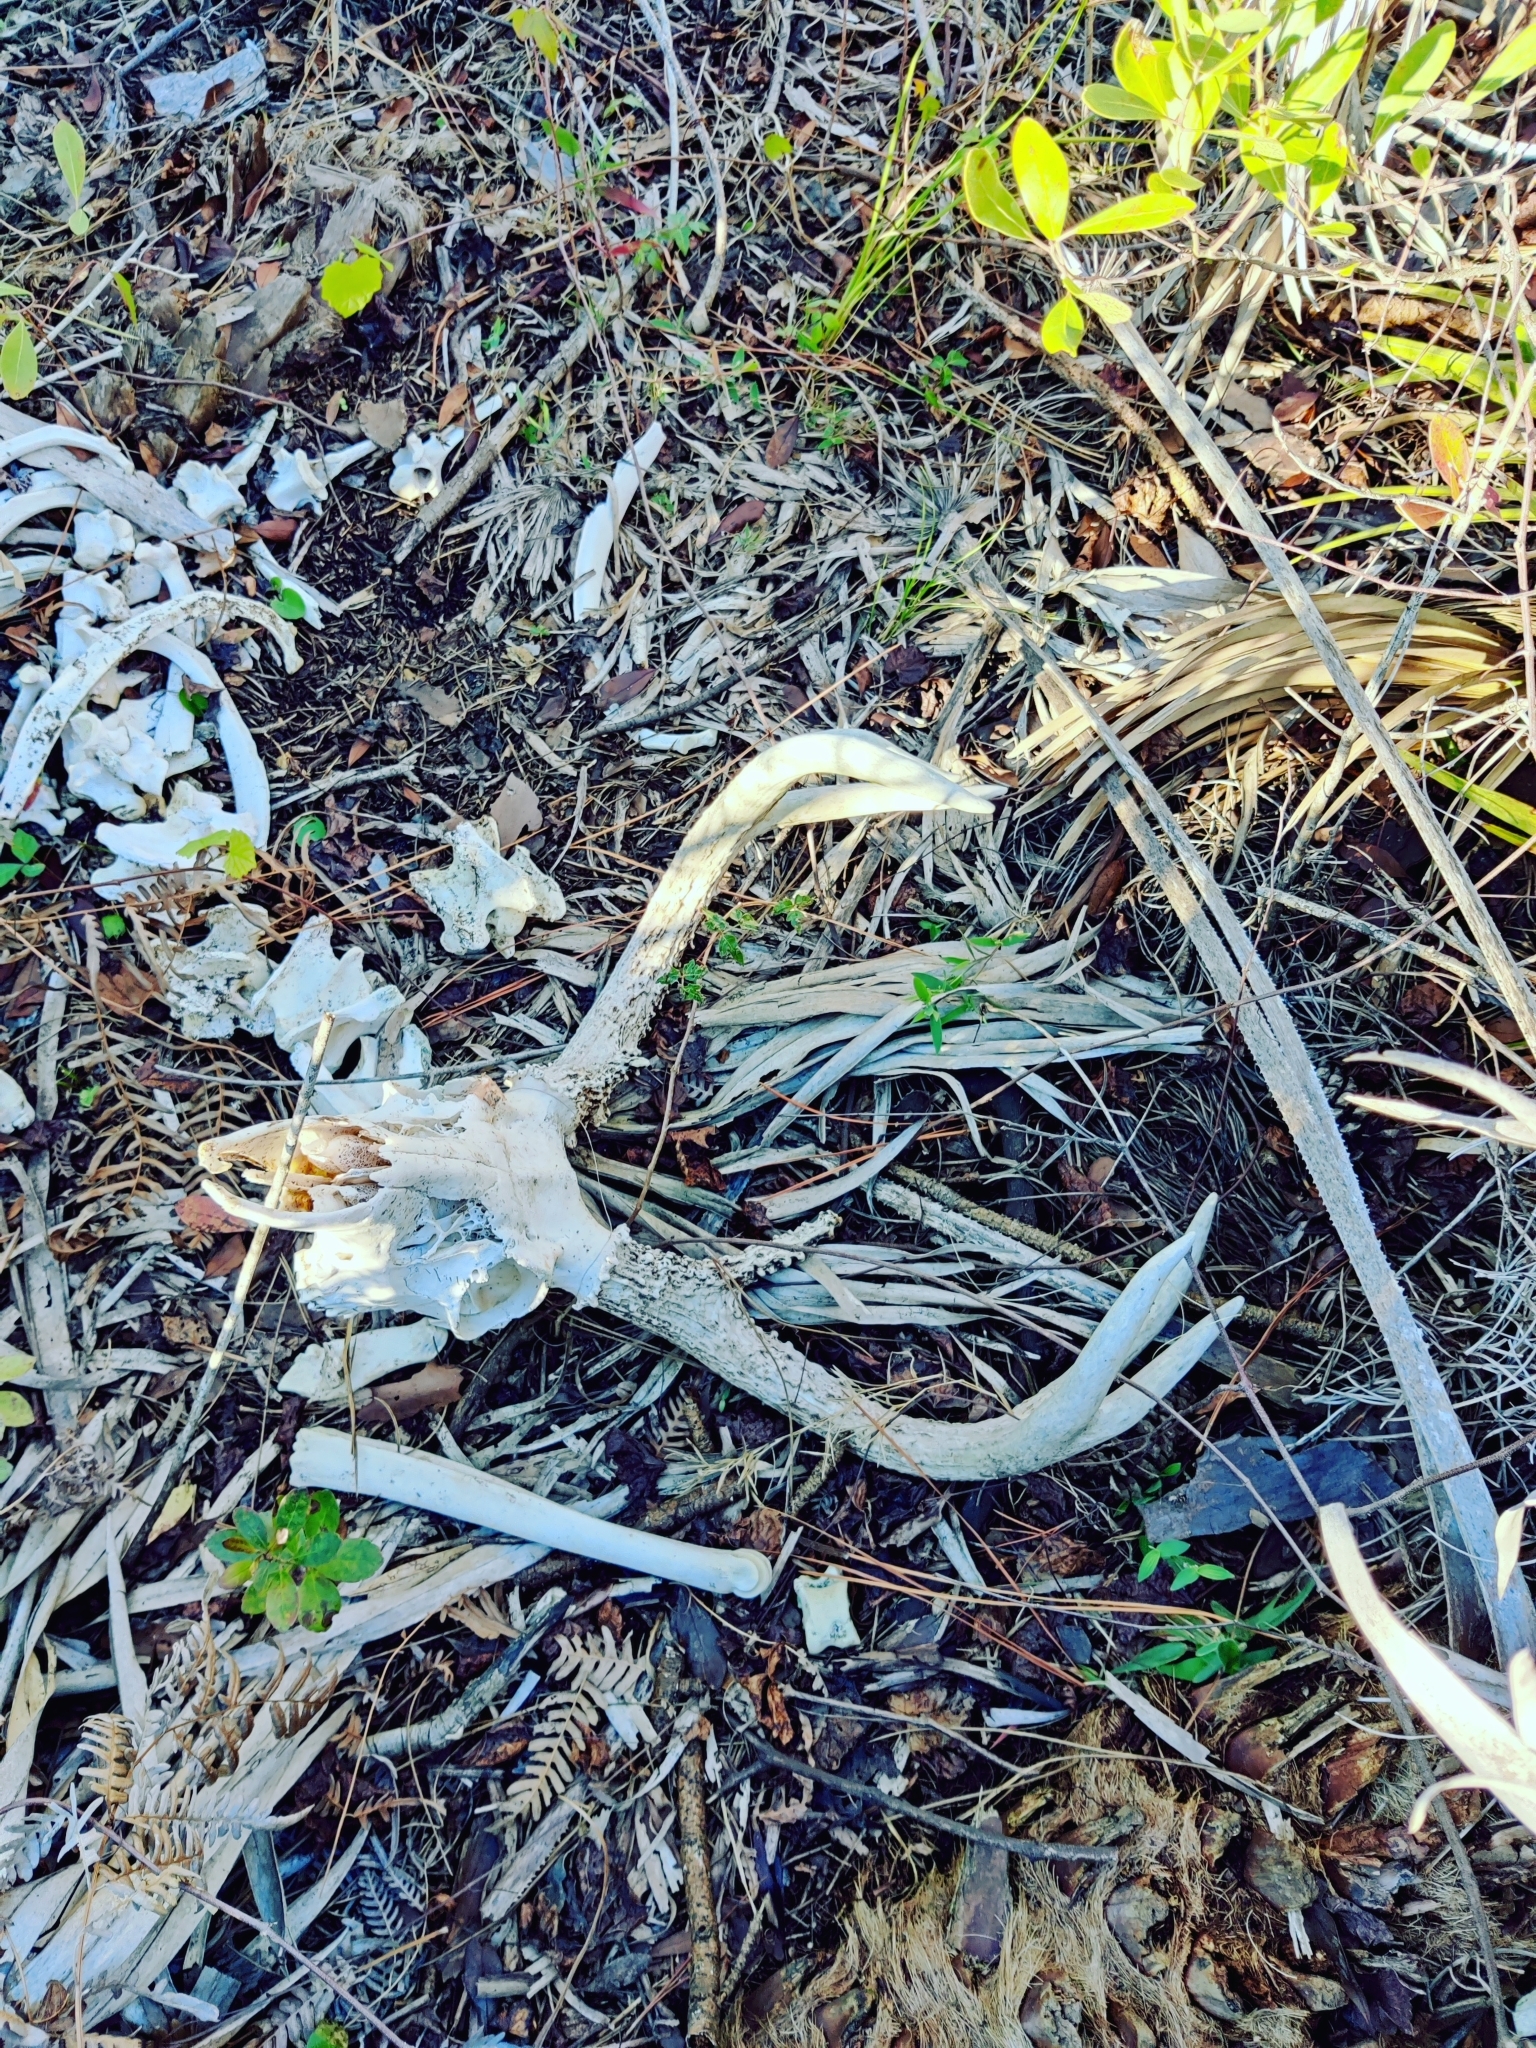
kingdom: Animalia
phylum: Chordata
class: Mammalia
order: Artiodactyla
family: Cervidae
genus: Odocoileus
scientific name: Odocoileus virginianus
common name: White-tailed deer
